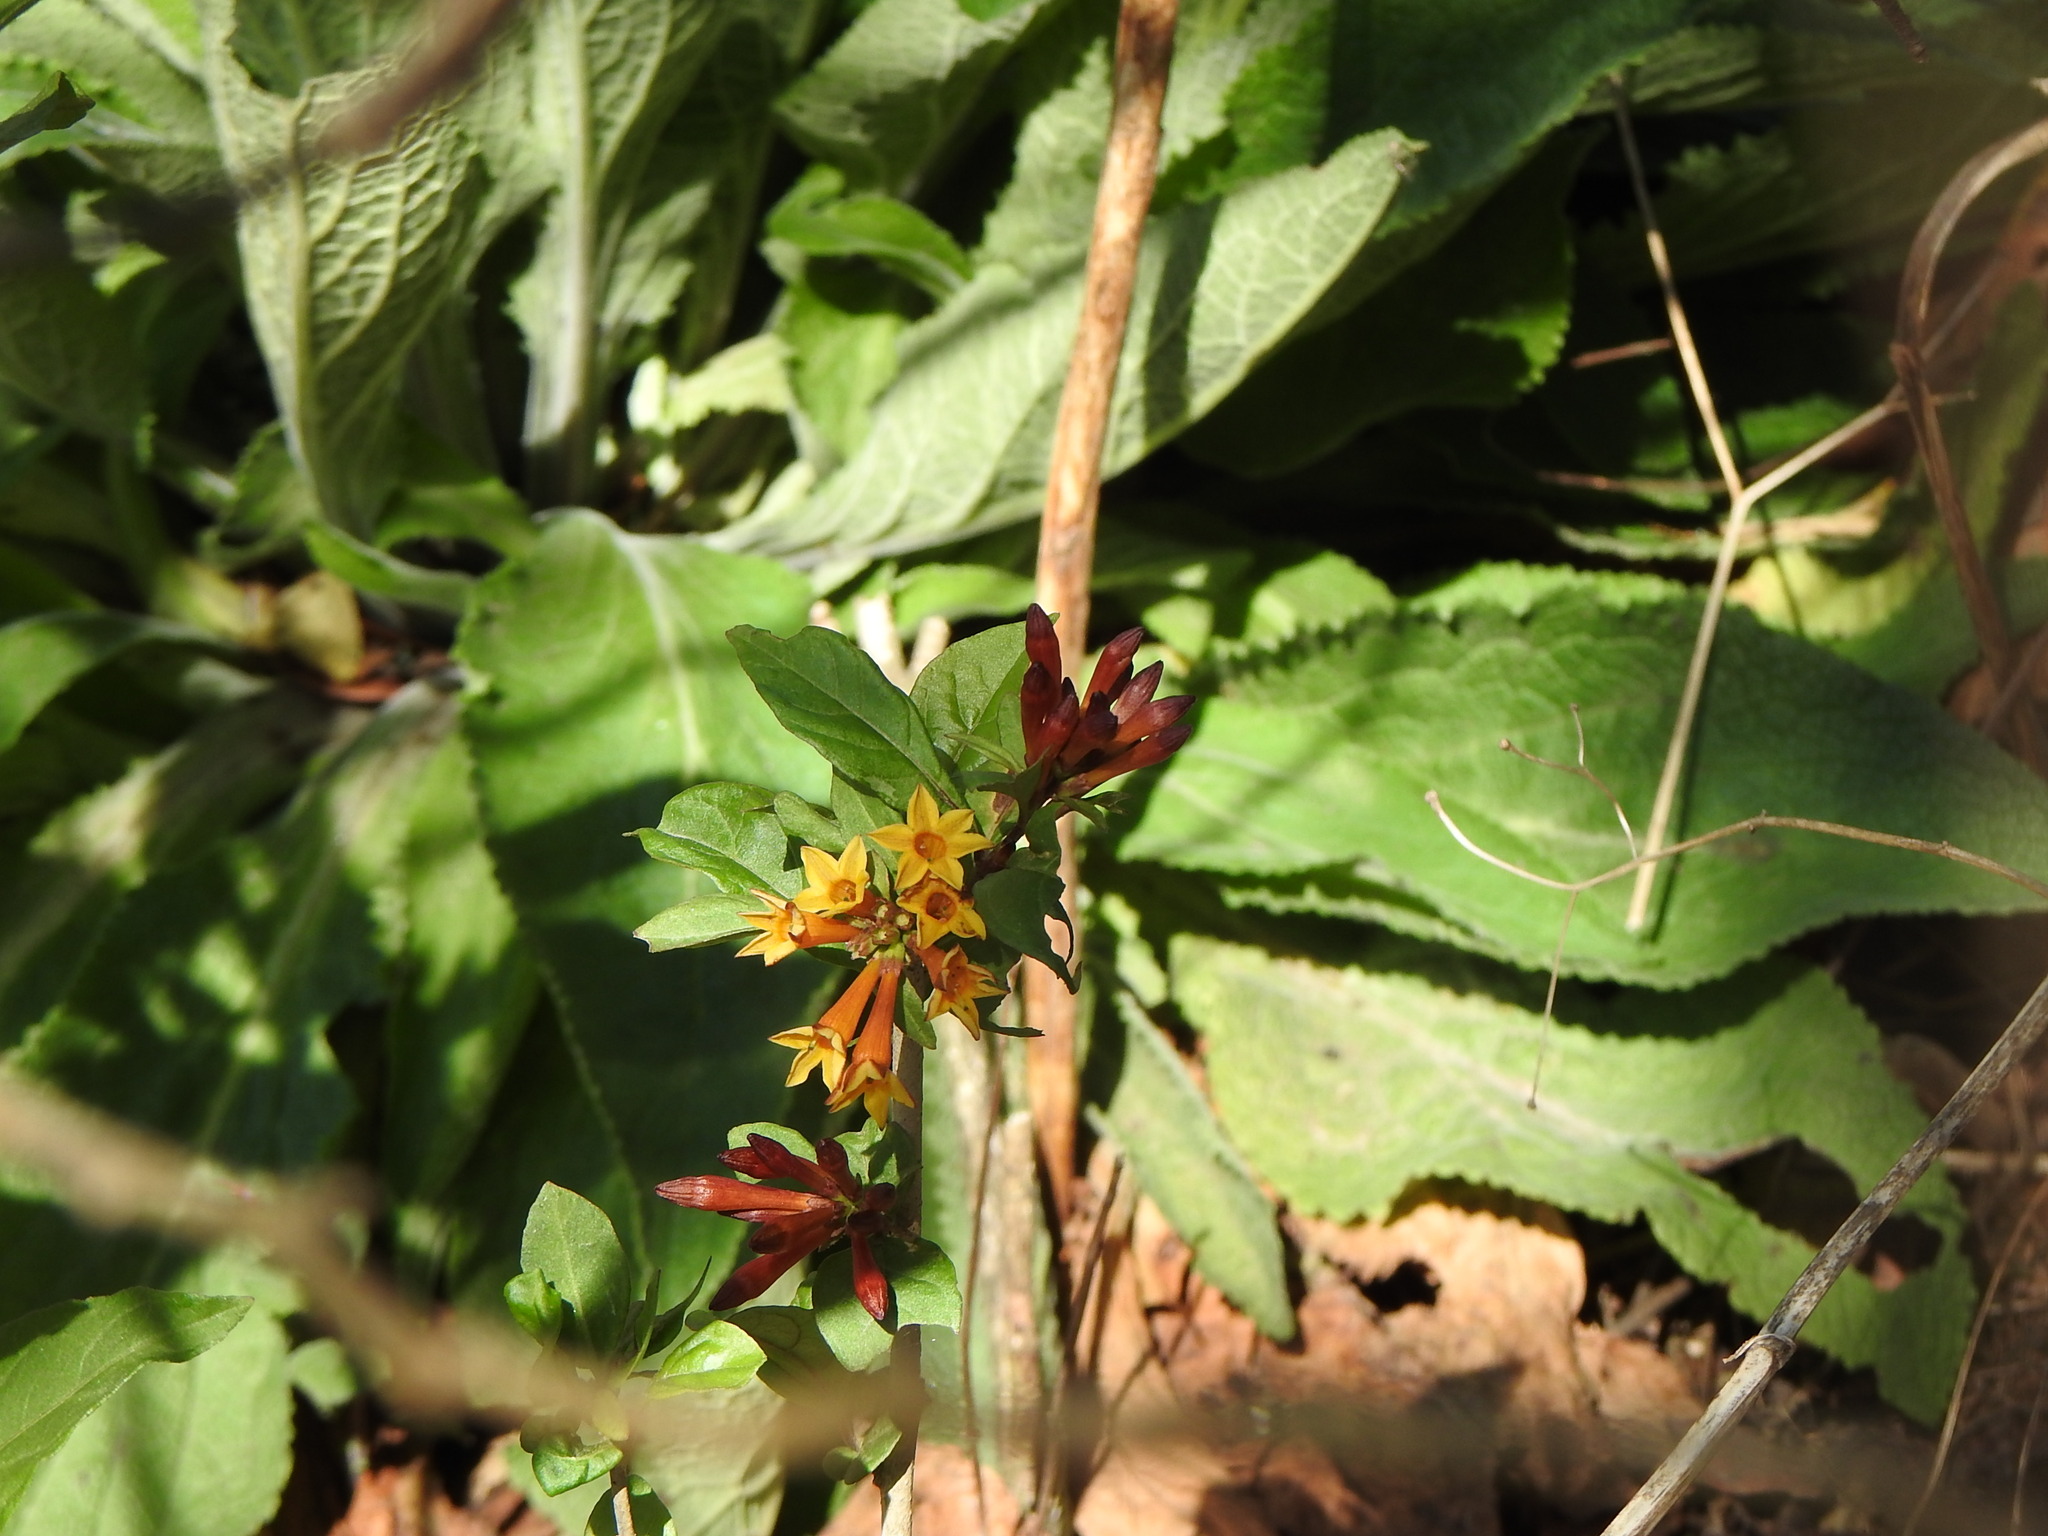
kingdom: Plantae
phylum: Tracheophyta
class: Magnoliopsida
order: Solanales
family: Solanaceae
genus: Cestrum
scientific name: Cestrum parqui
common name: Chilean cestrum
